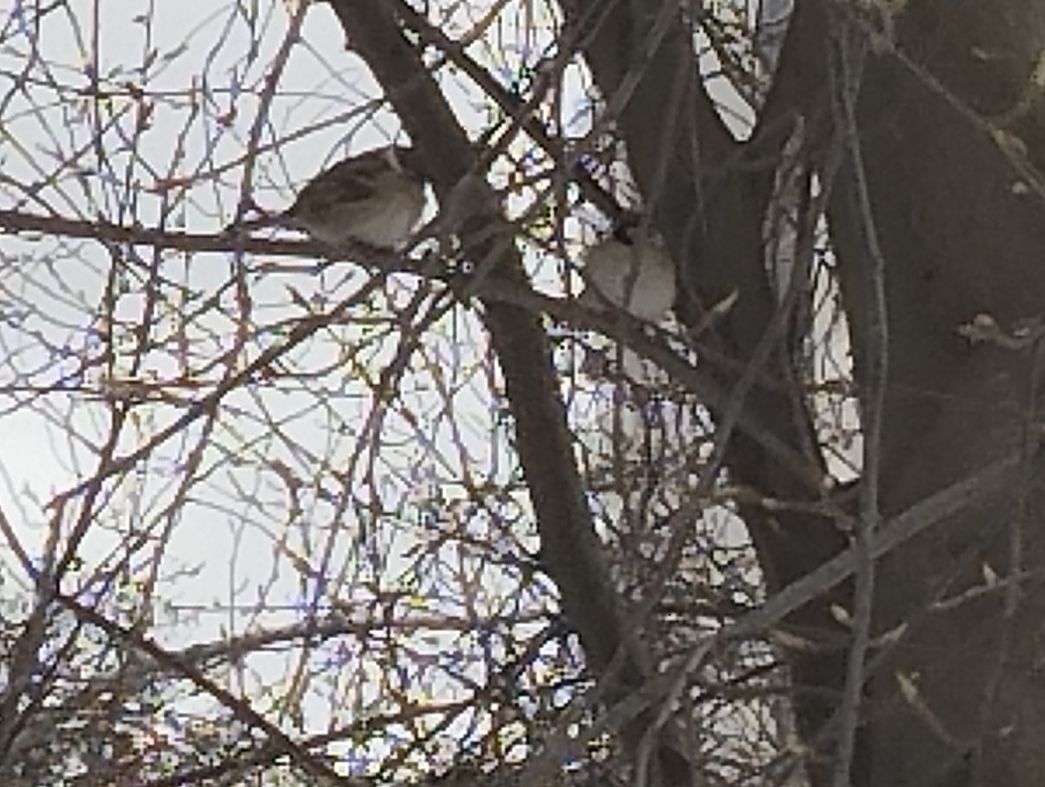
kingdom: Animalia
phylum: Chordata
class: Aves
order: Passeriformes
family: Passeridae
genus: Passer
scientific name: Passer montanus
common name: Eurasian tree sparrow
